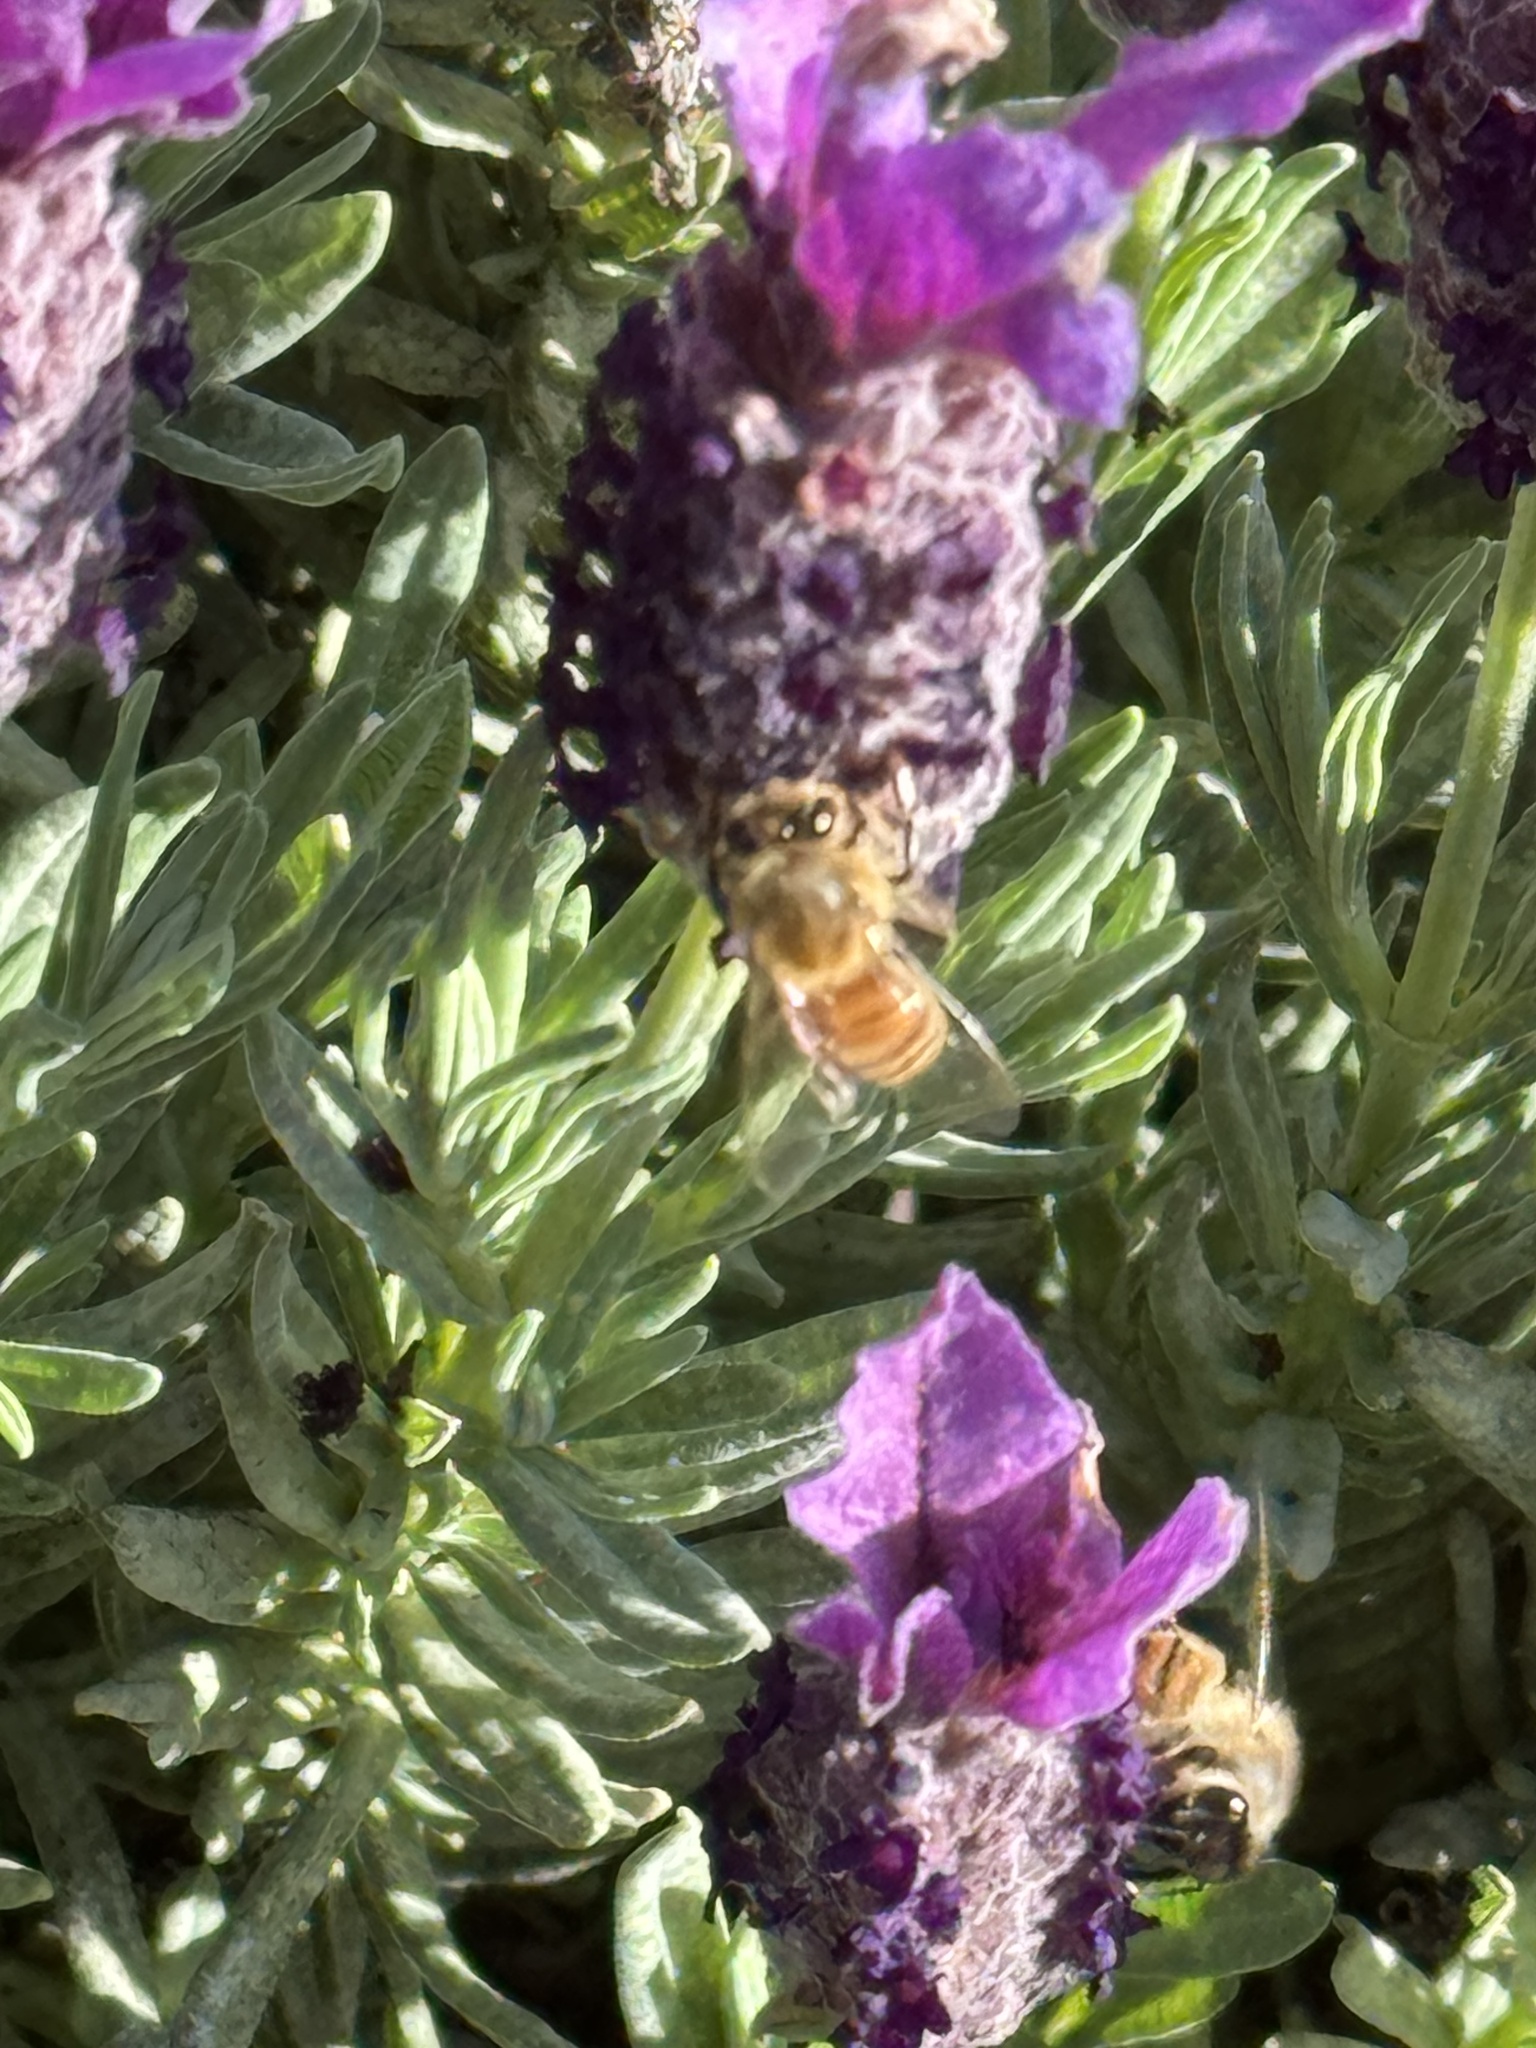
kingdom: Animalia
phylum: Arthropoda
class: Insecta
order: Hymenoptera
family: Apidae
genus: Apis
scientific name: Apis mellifera
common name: Honey bee
